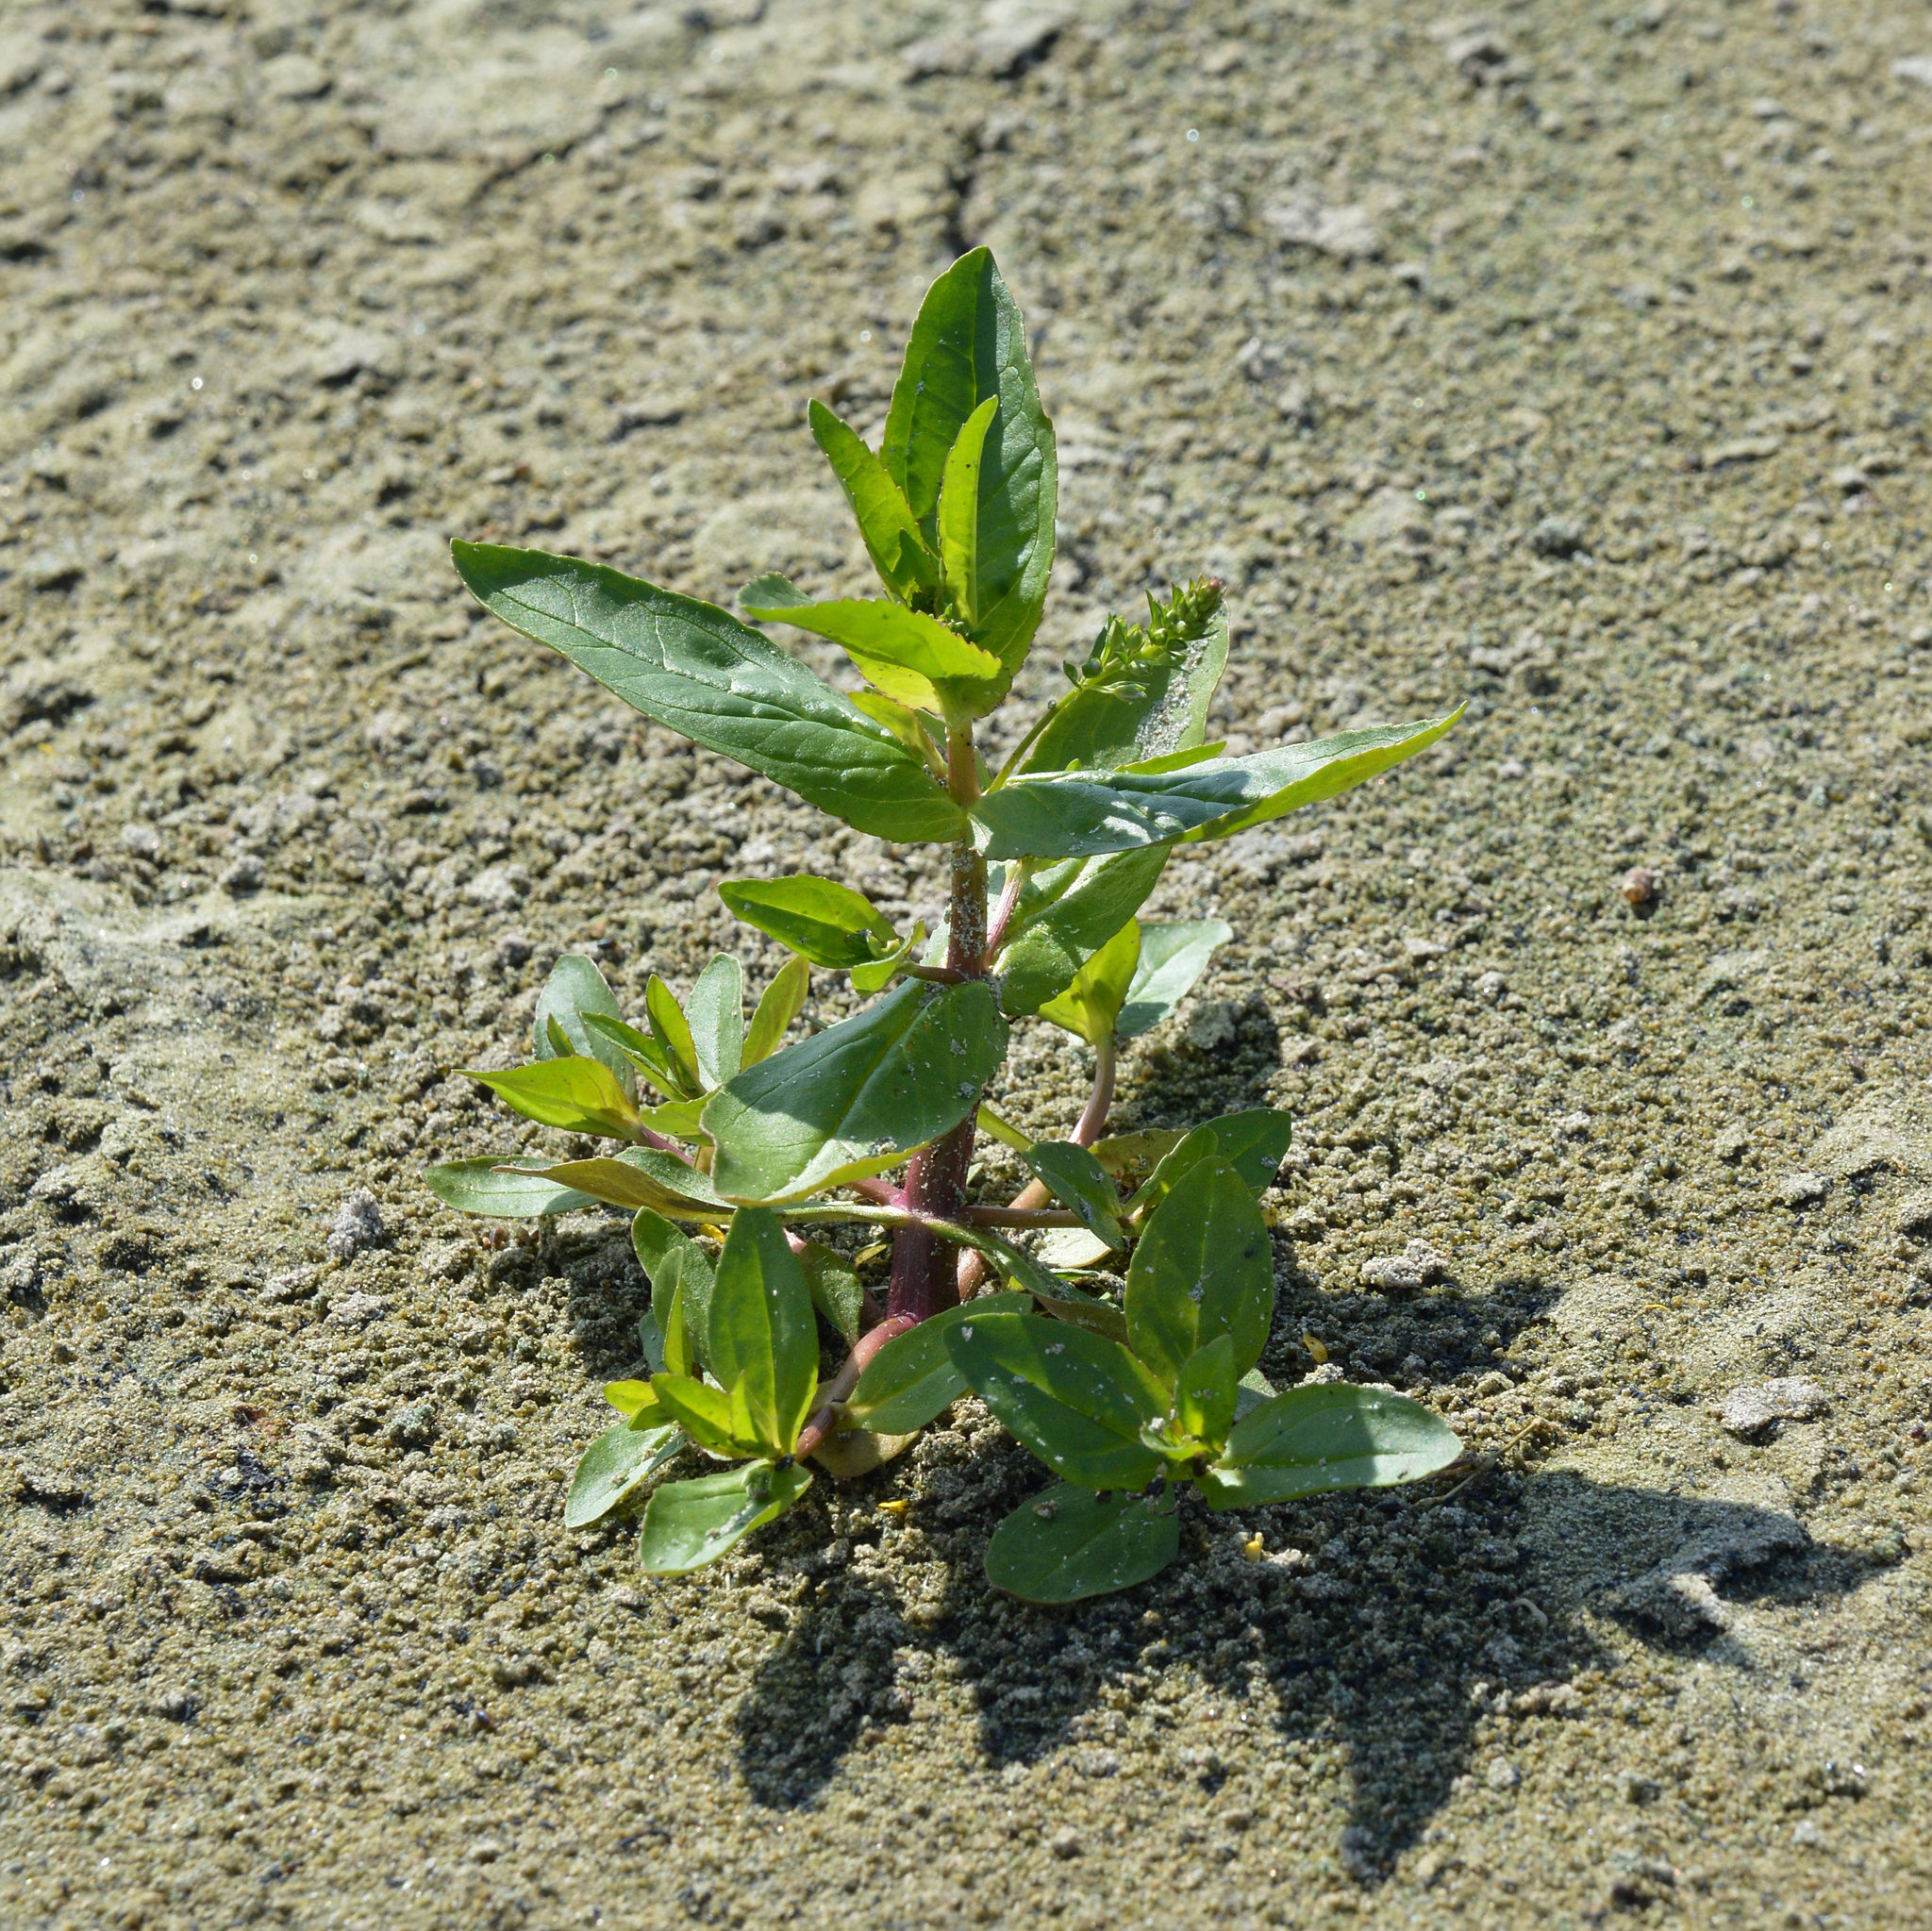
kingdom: Plantae
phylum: Tracheophyta
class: Magnoliopsida
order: Lamiales
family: Plantaginaceae
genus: Veronica
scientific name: Veronica anagallis-aquatica
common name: Water speedwell
